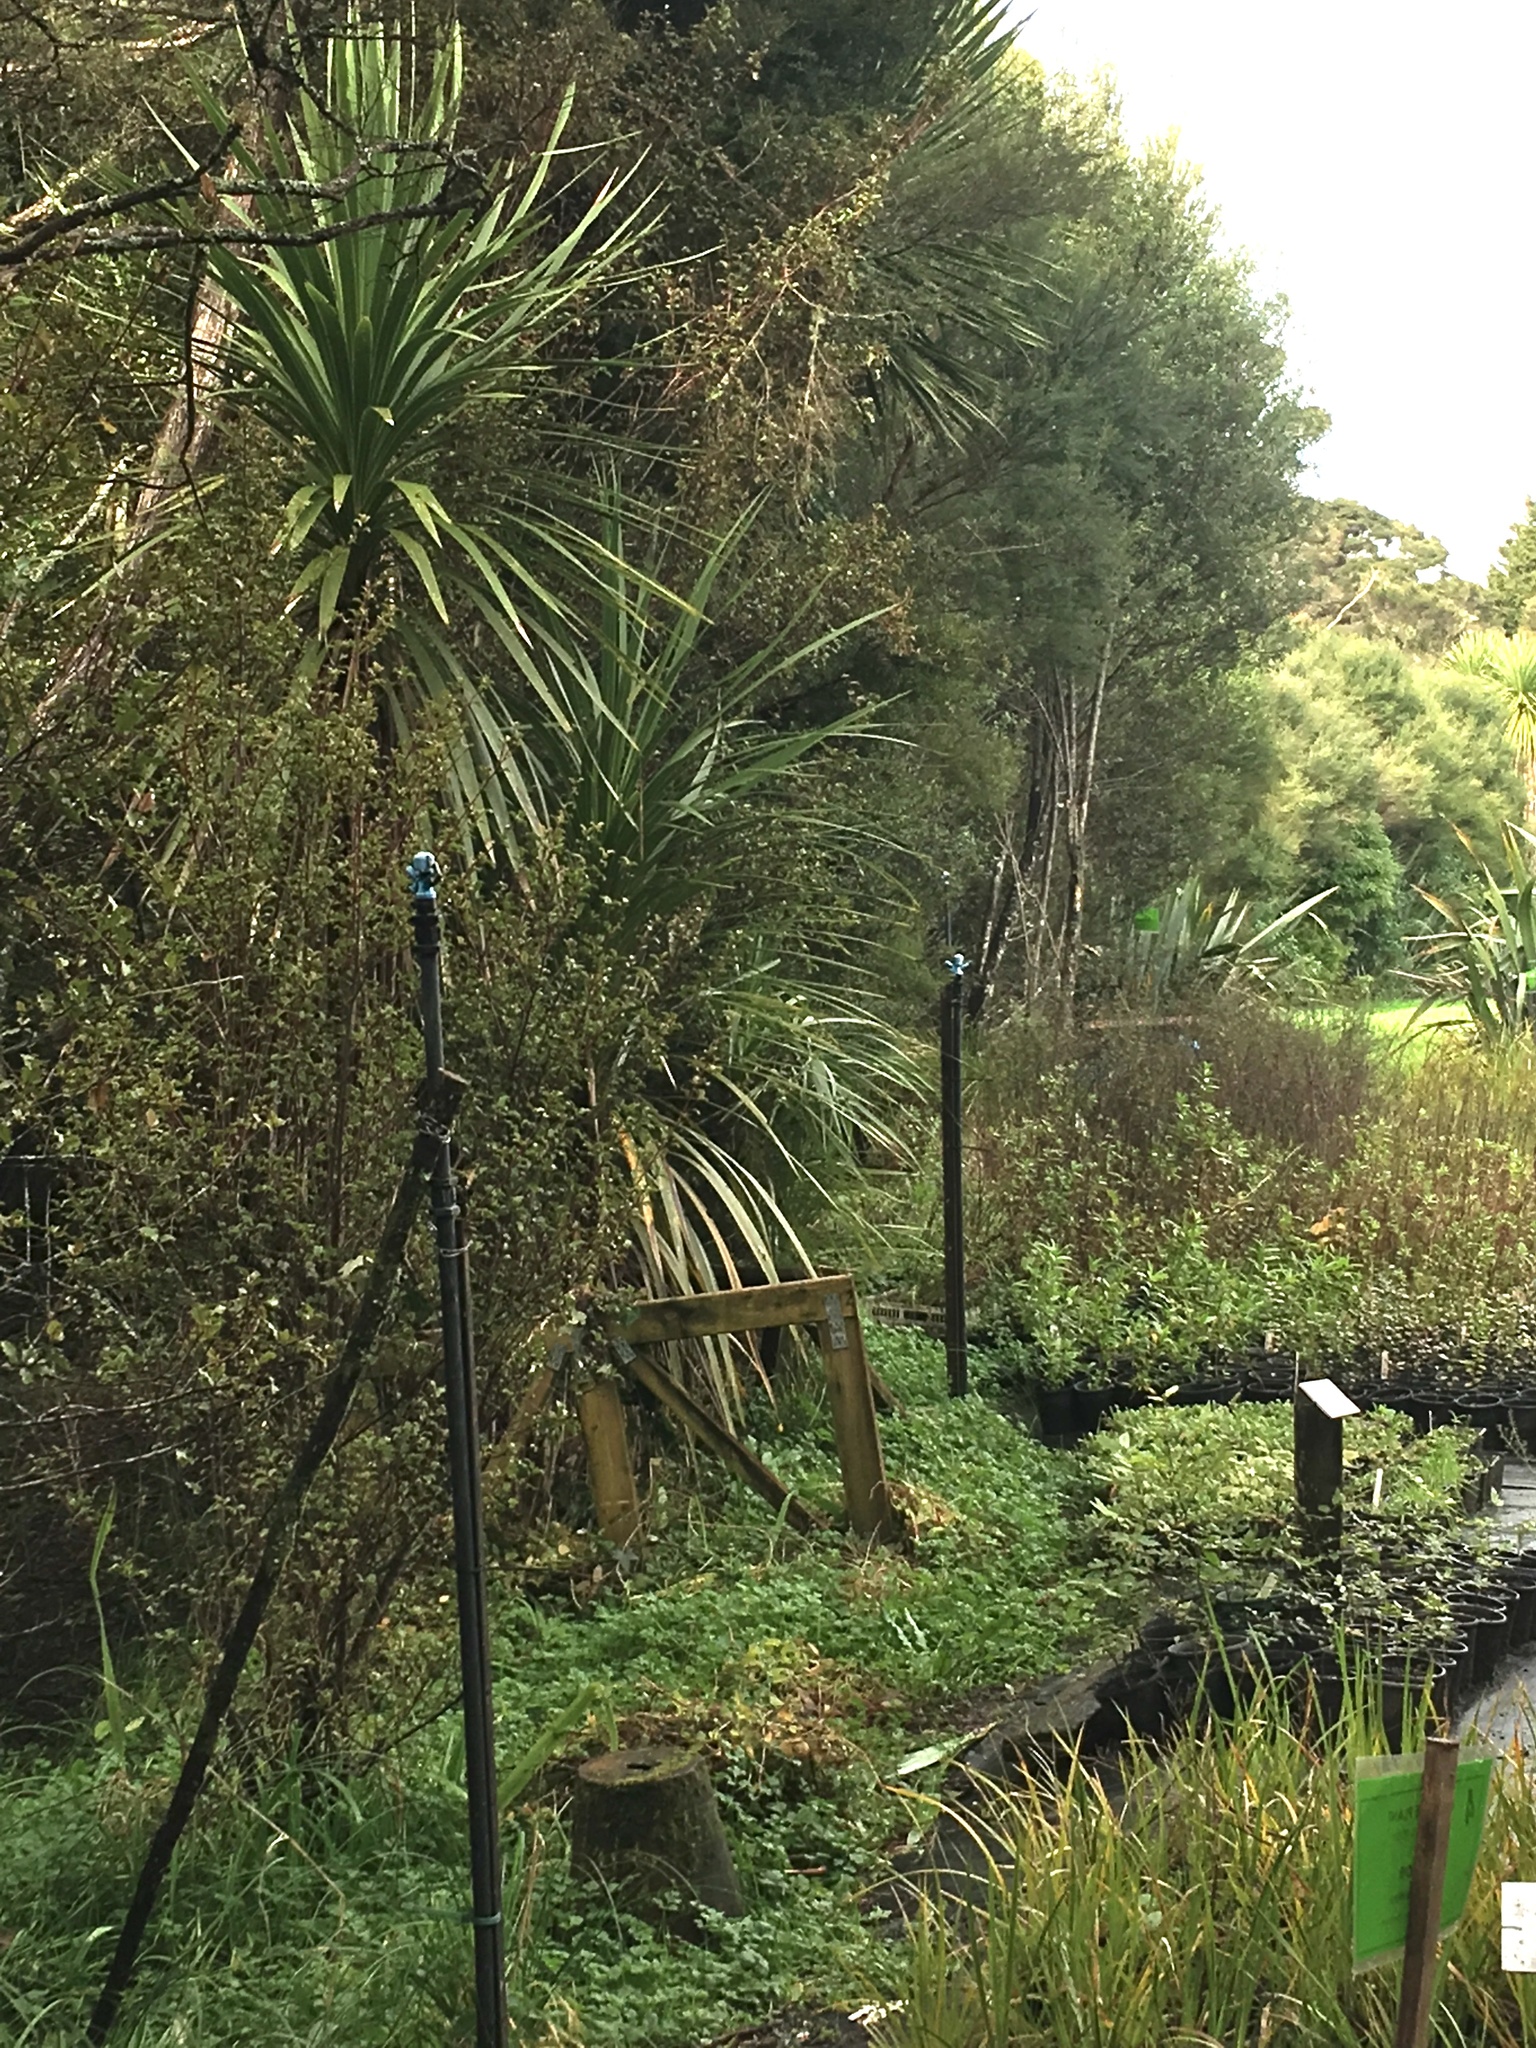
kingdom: Plantae
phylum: Tracheophyta
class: Liliopsida
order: Asparagales
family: Asparagaceae
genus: Cordyline
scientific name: Cordyline australis
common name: Cabbage-palm
